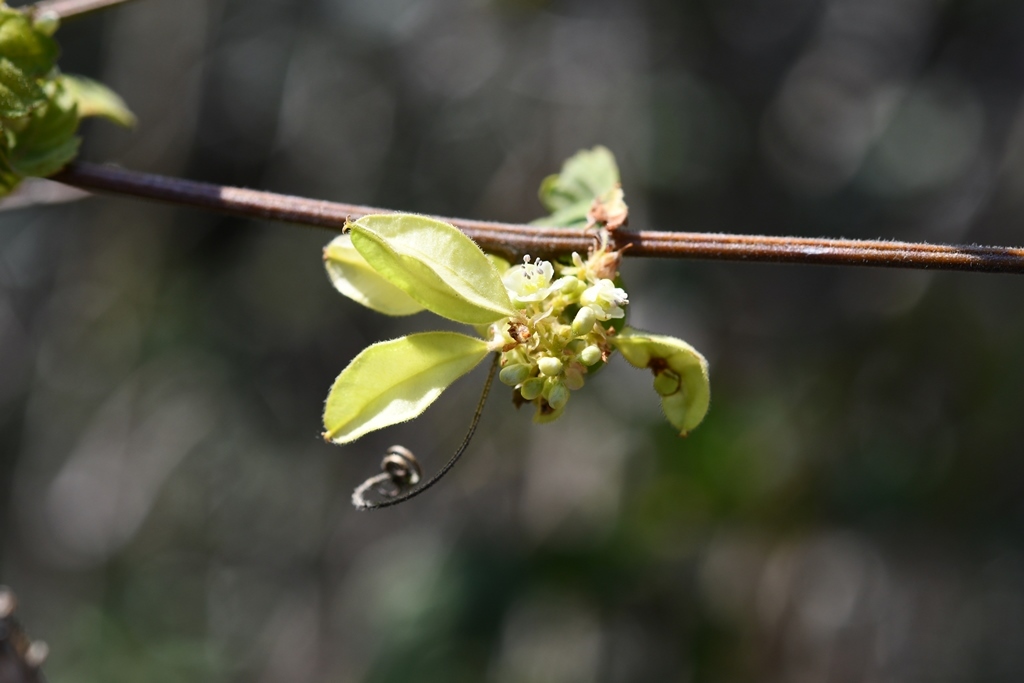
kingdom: Plantae
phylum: Tracheophyta
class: Magnoliopsida
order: Sapindales
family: Sapindaceae
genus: Urvillea
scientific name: Urvillea ulmacea
